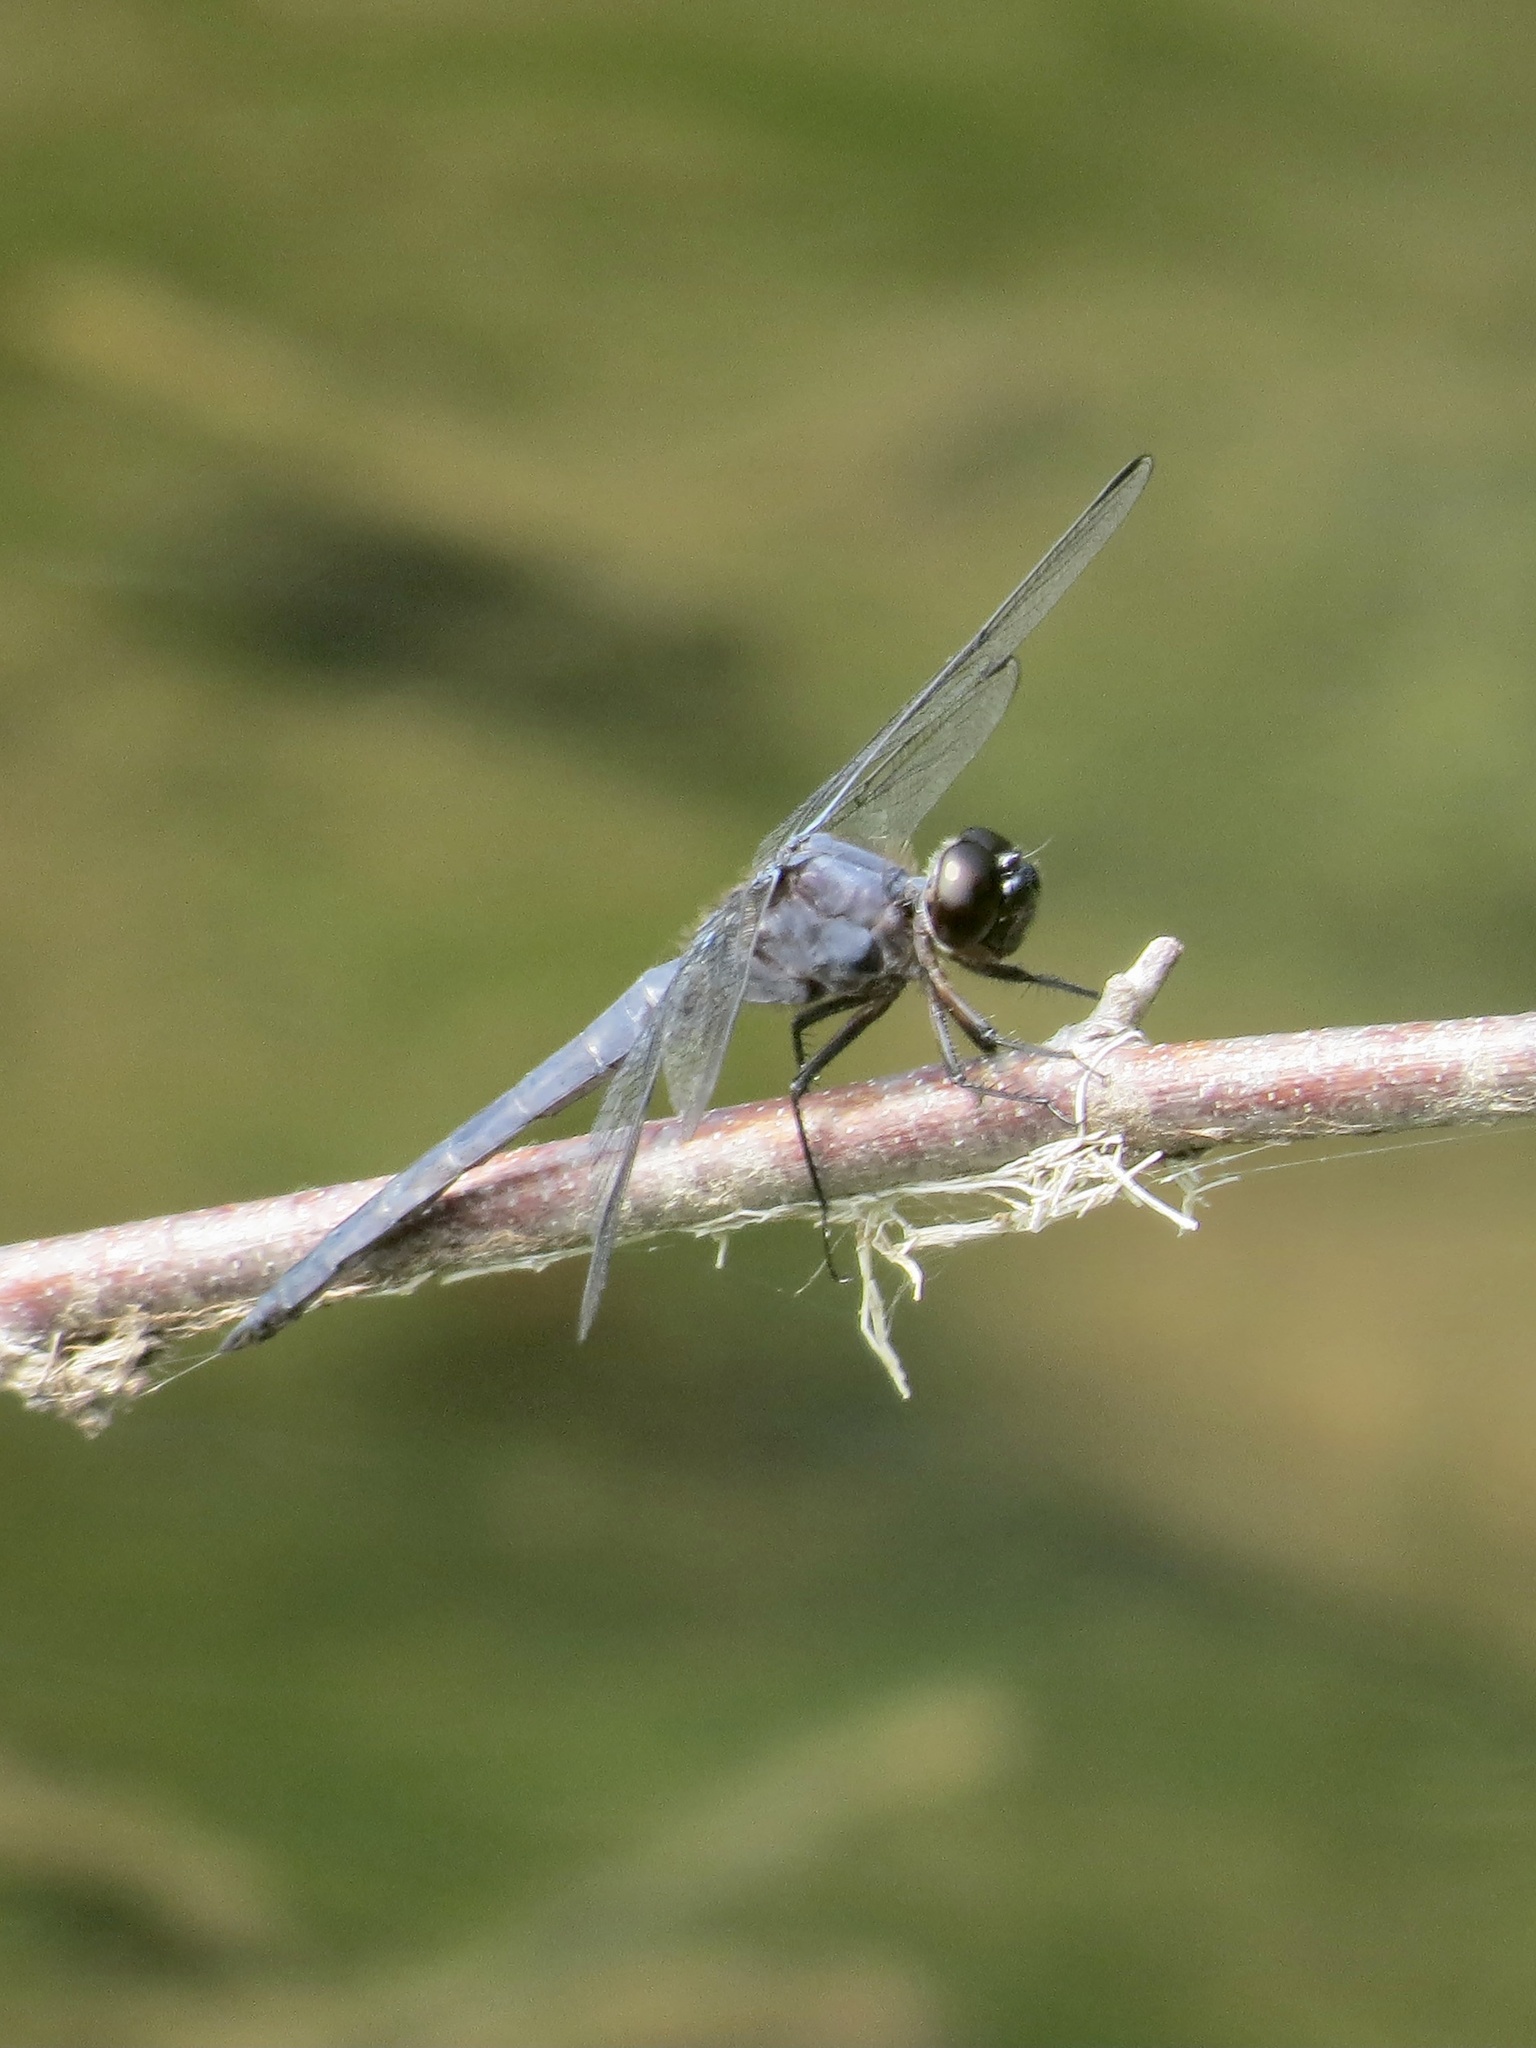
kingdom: Animalia
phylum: Arthropoda
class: Insecta
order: Odonata
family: Libellulidae
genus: Libellula
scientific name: Libellula incesta
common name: Slaty skimmer
